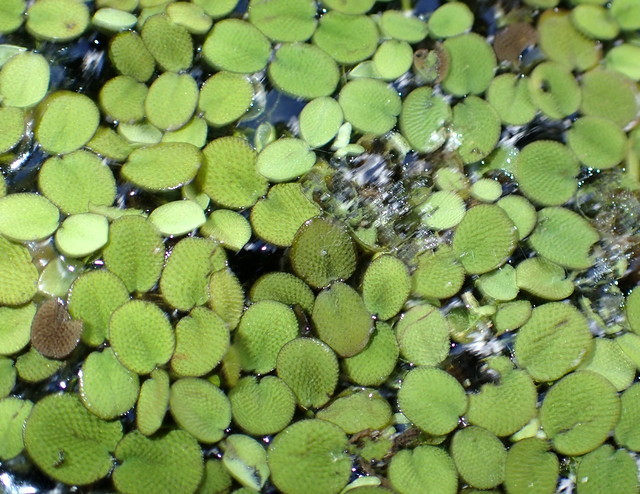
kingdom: Plantae
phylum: Tracheophyta
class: Polypodiopsida
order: Salviniales
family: Salviniaceae
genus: Salvinia
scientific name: Salvinia minima
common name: Water spangles
